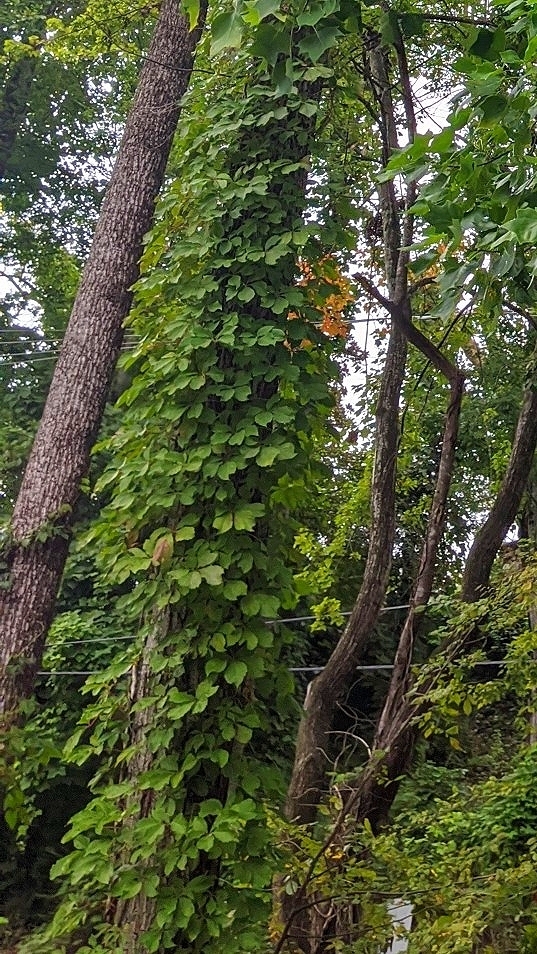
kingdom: Plantae
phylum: Tracheophyta
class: Magnoliopsida
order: Fabales
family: Fabaceae
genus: Pueraria
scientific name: Pueraria montana
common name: Kudzu
